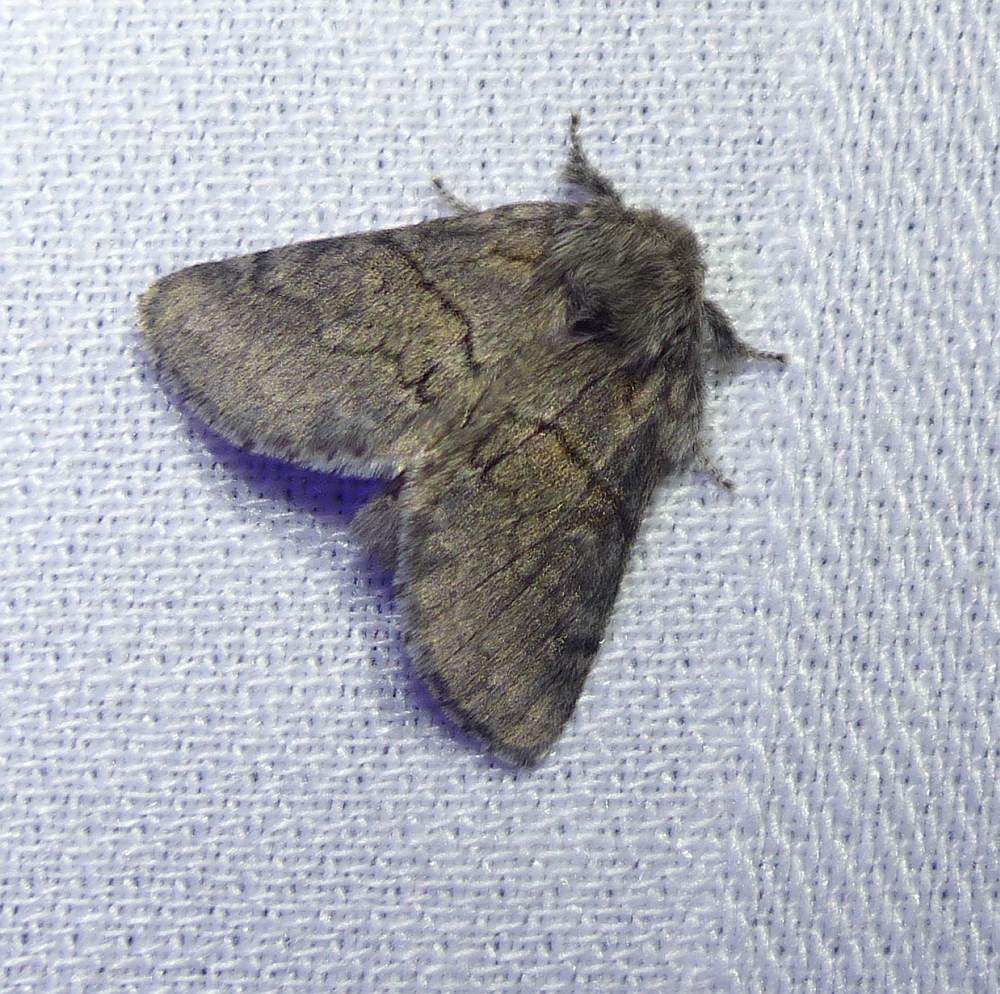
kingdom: Animalia
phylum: Arthropoda
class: Insecta
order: Lepidoptera
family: Notodontidae
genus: Gluphisia
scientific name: Gluphisia septentrionis
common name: Common gluphisia
